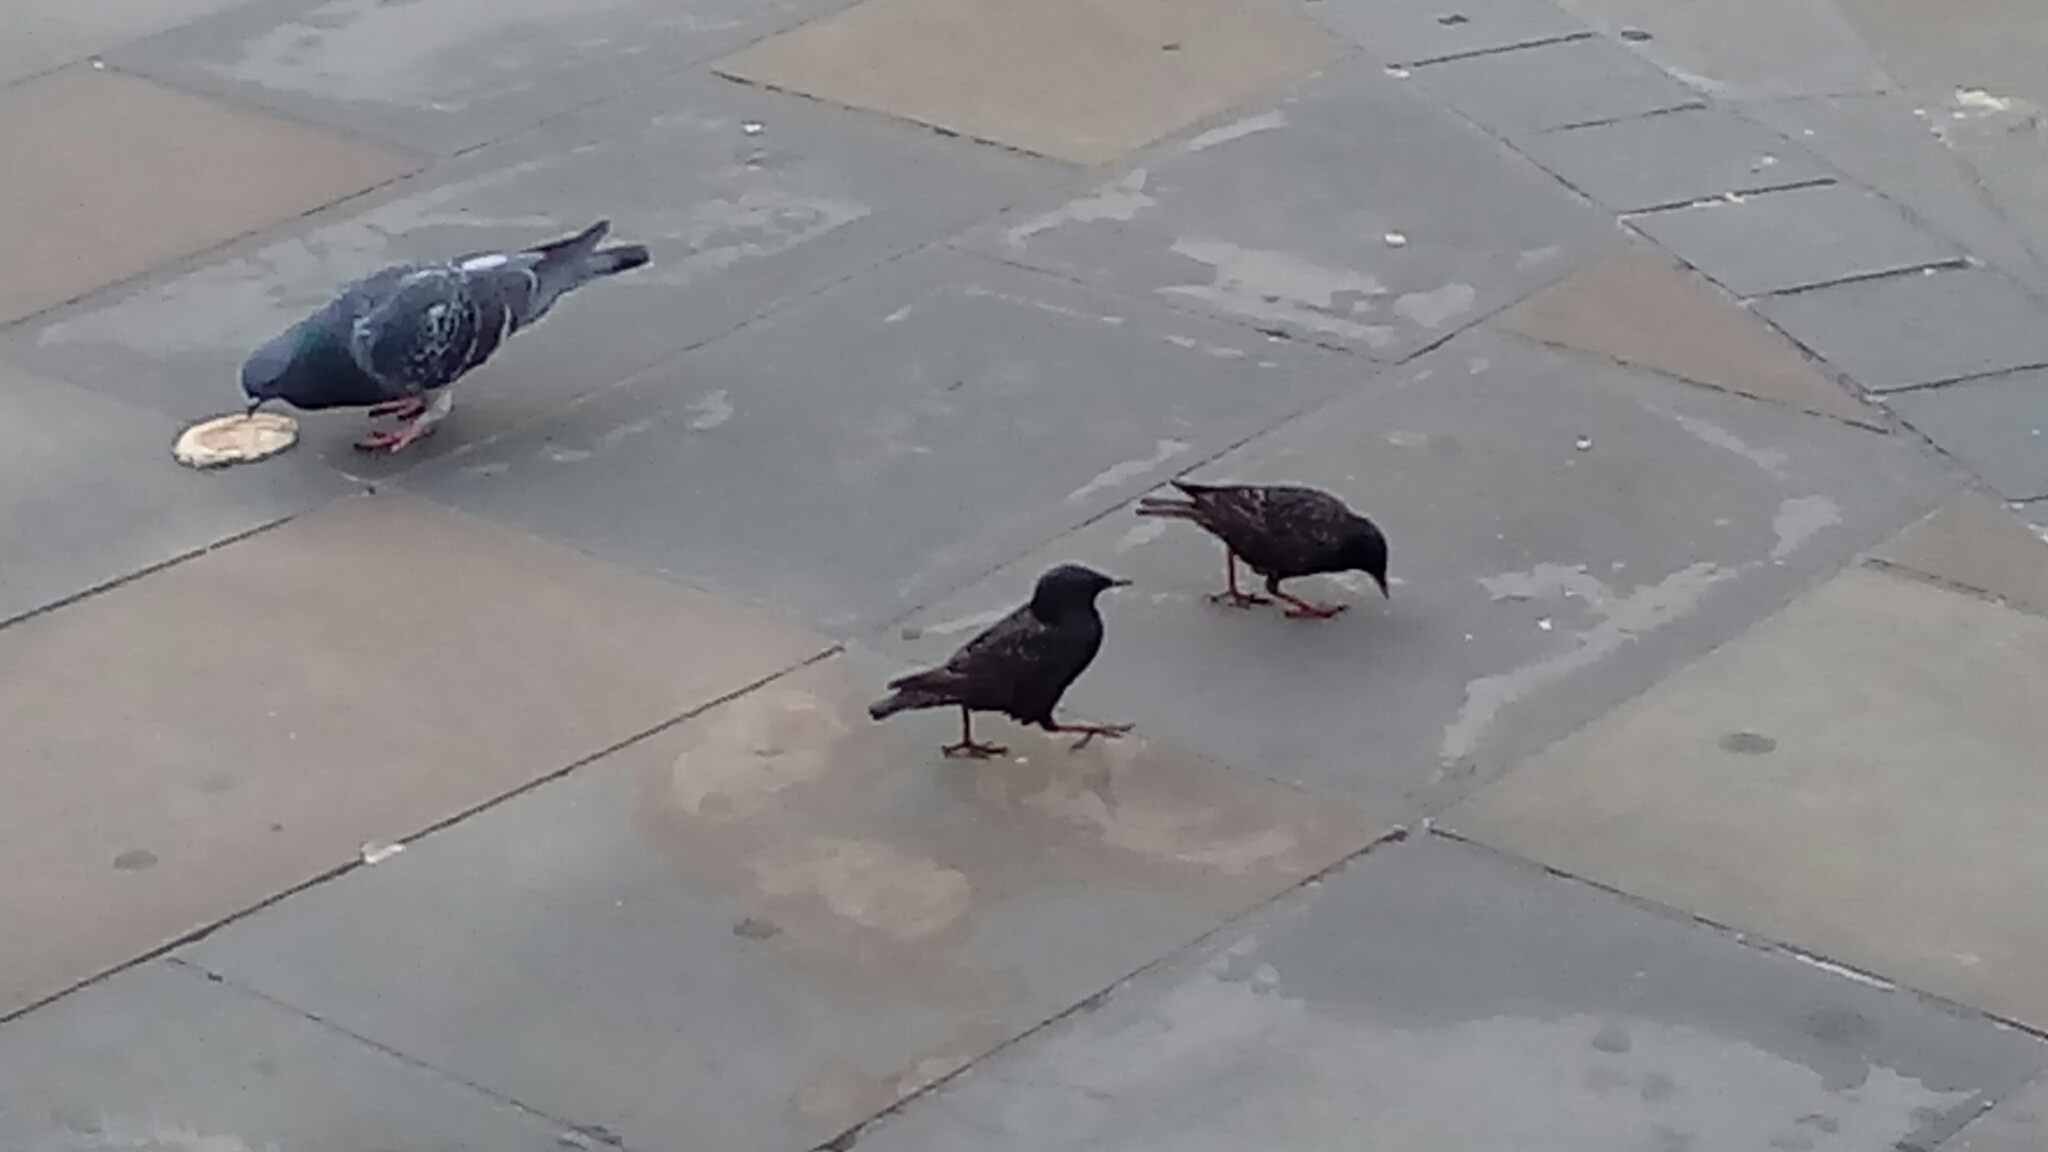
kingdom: Animalia
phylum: Chordata
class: Aves
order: Passeriformes
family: Sturnidae
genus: Sturnus
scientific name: Sturnus vulgaris
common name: Common starling
